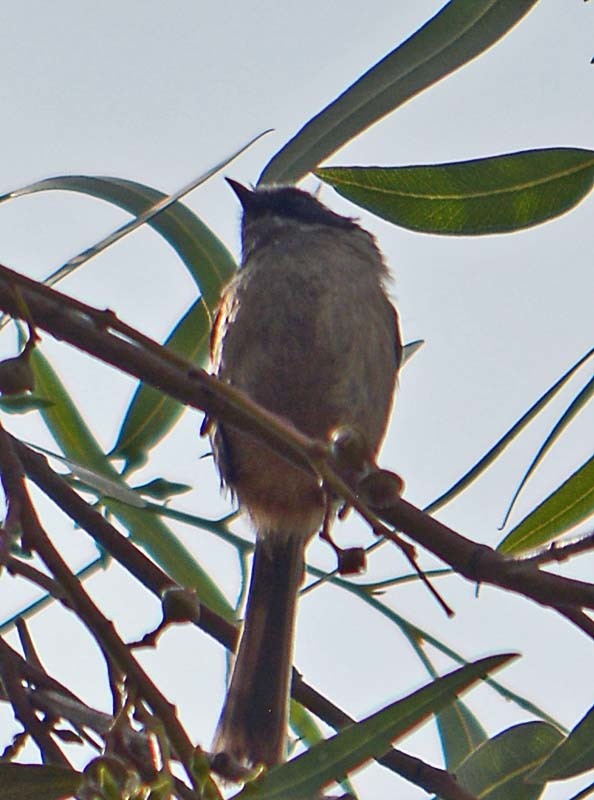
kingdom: Animalia
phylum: Chordata
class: Aves
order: Passeriformes
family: Aegithalidae
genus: Psaltriparus
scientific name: Psaltriparus minimus
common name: American bushtit
